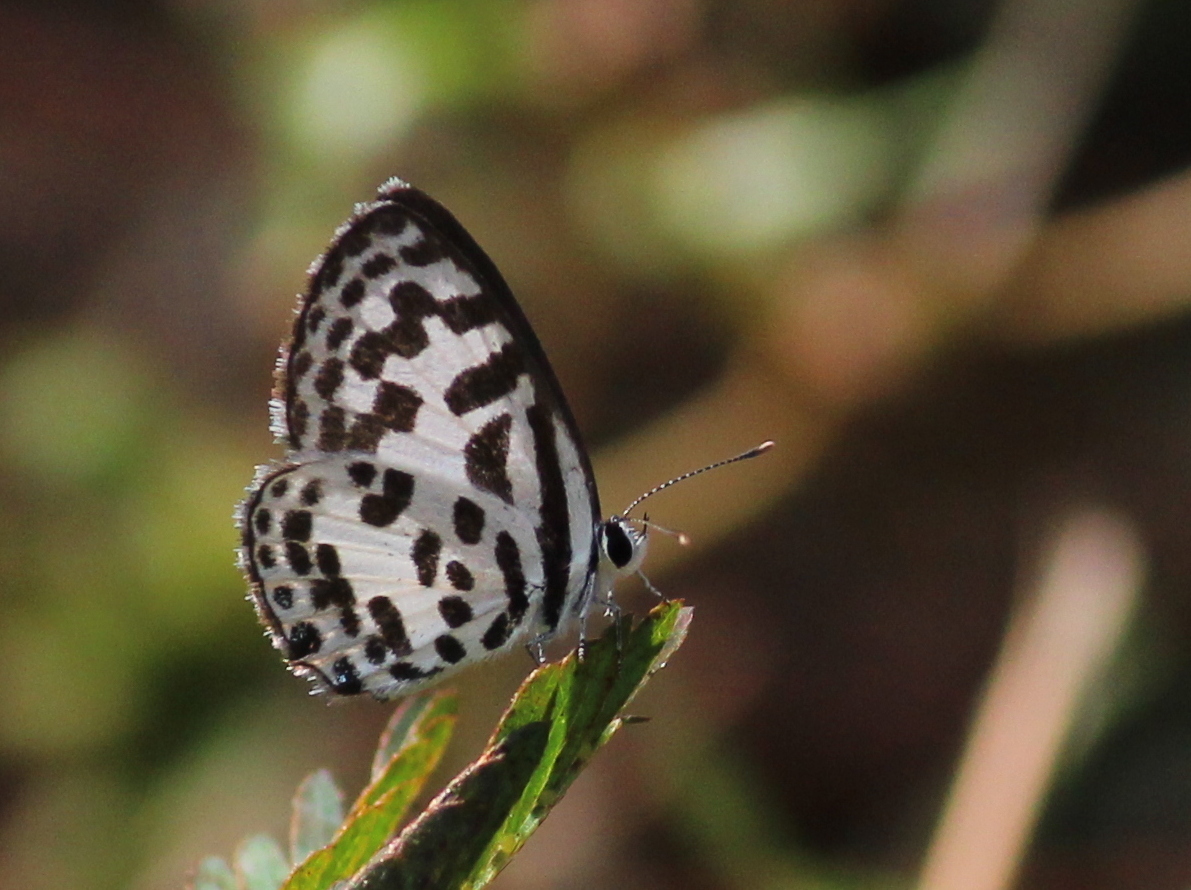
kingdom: Animalia
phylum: Arthropoda
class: Insecta
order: Lepidoptera
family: Lycaenidae
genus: Castalius
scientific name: Castalius rosimon
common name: Common pierrot
